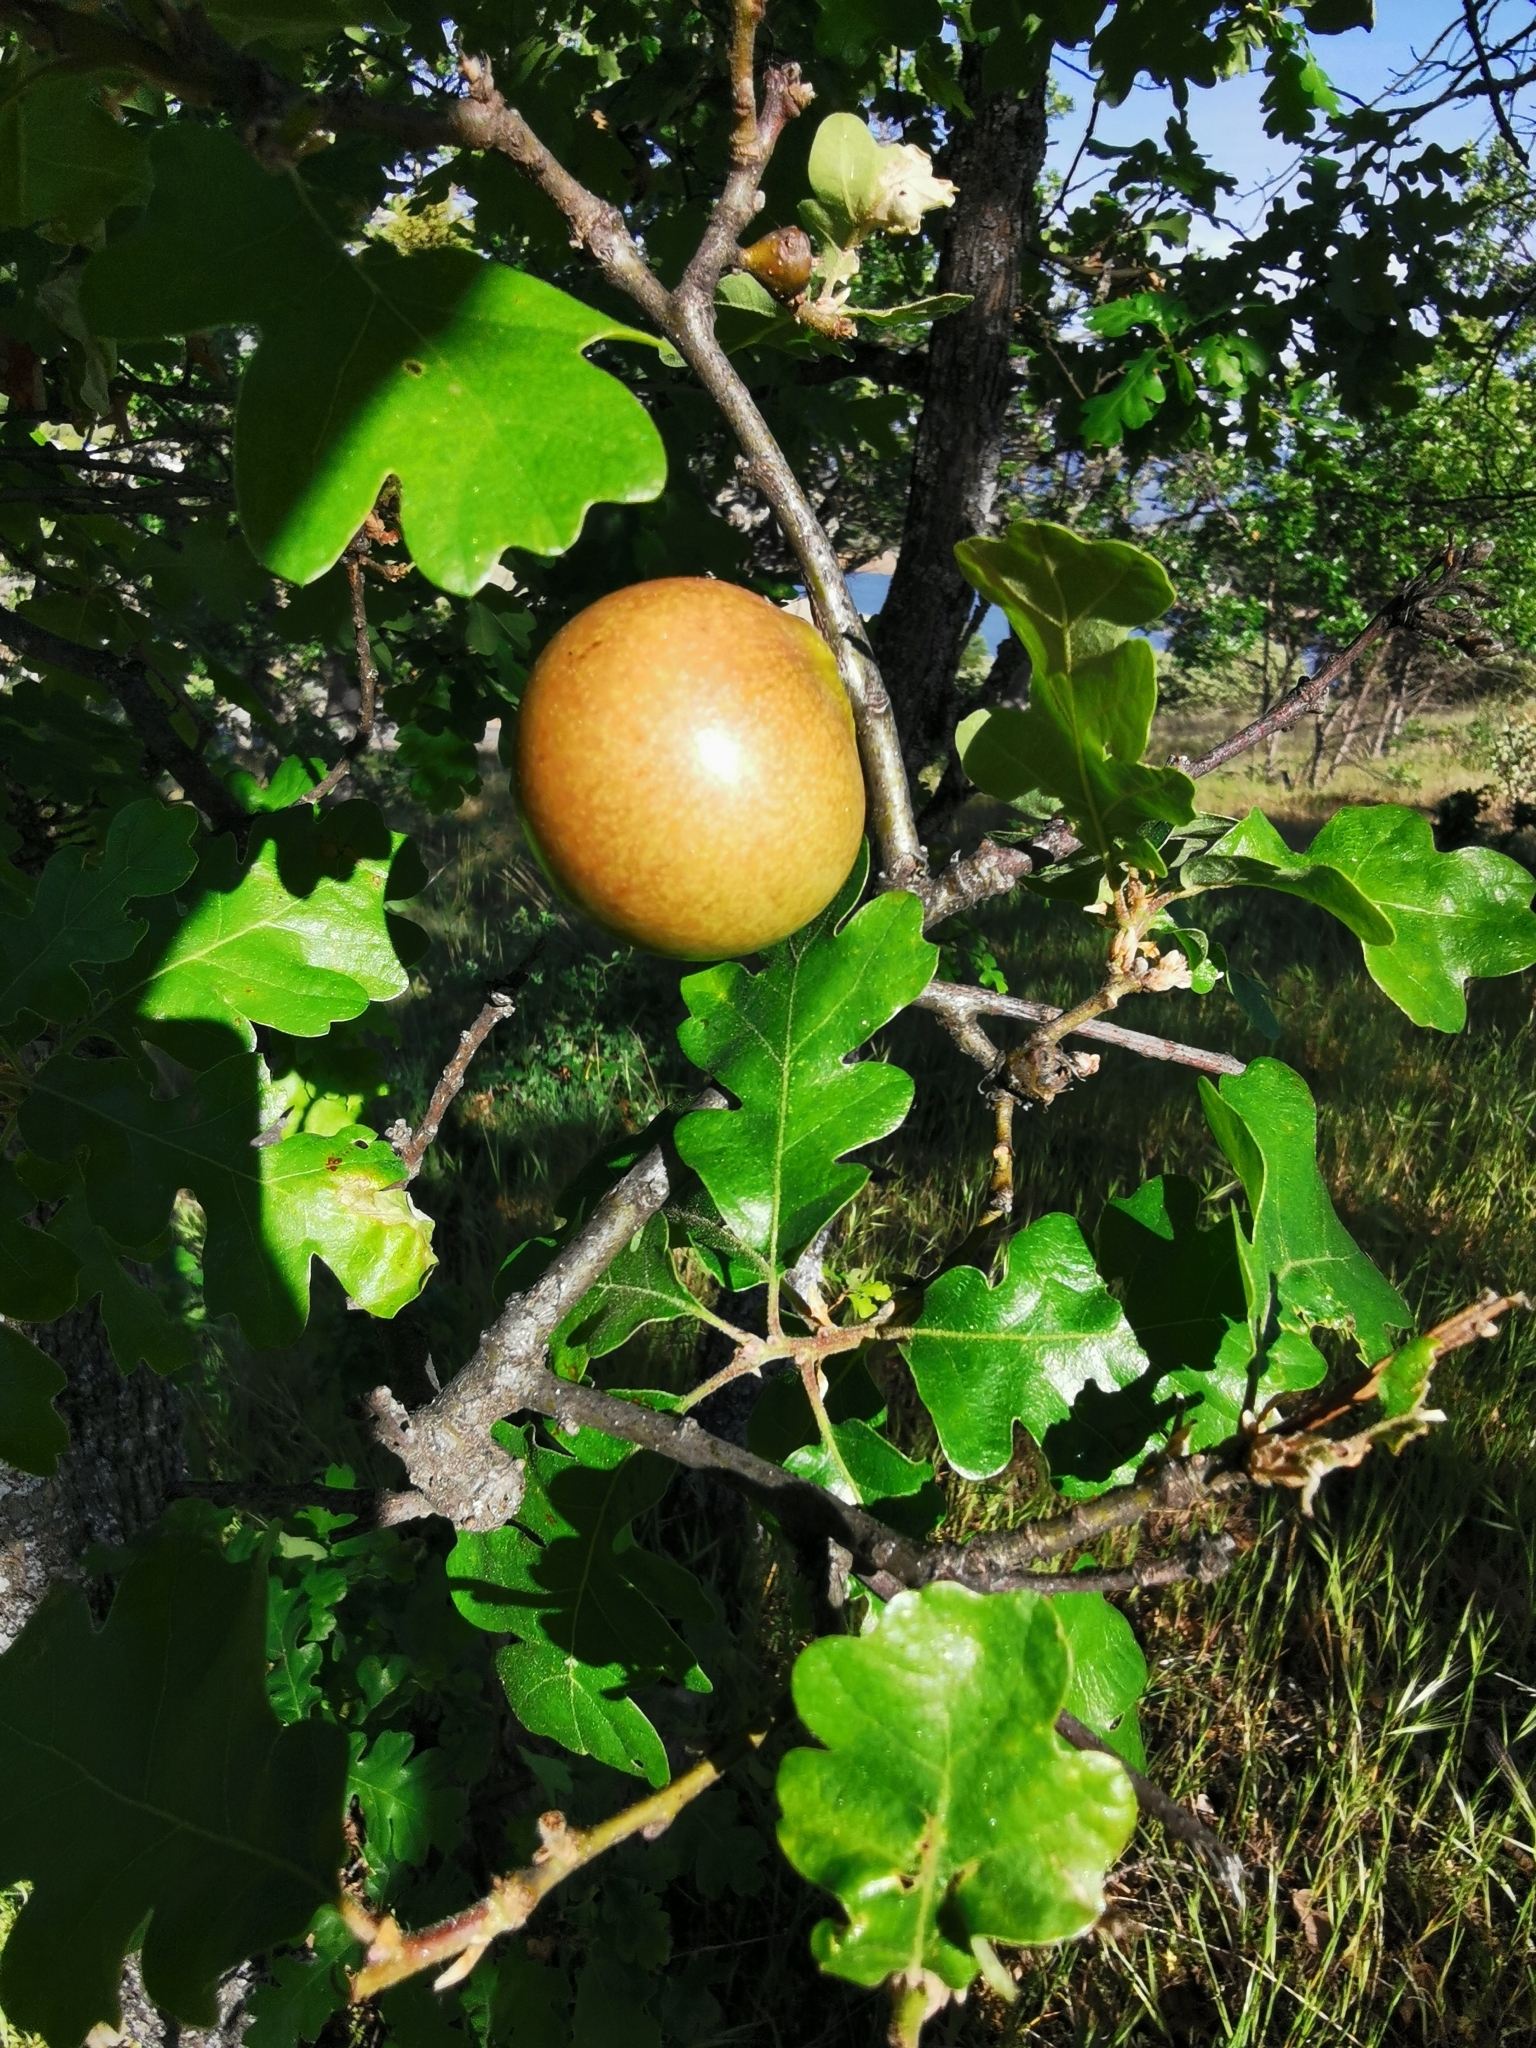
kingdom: Animalia
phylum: Arthropoda
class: Insecta
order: Hymenoptera
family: Cynipidae
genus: Andricus
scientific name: Andricus quercuscalifornicus
